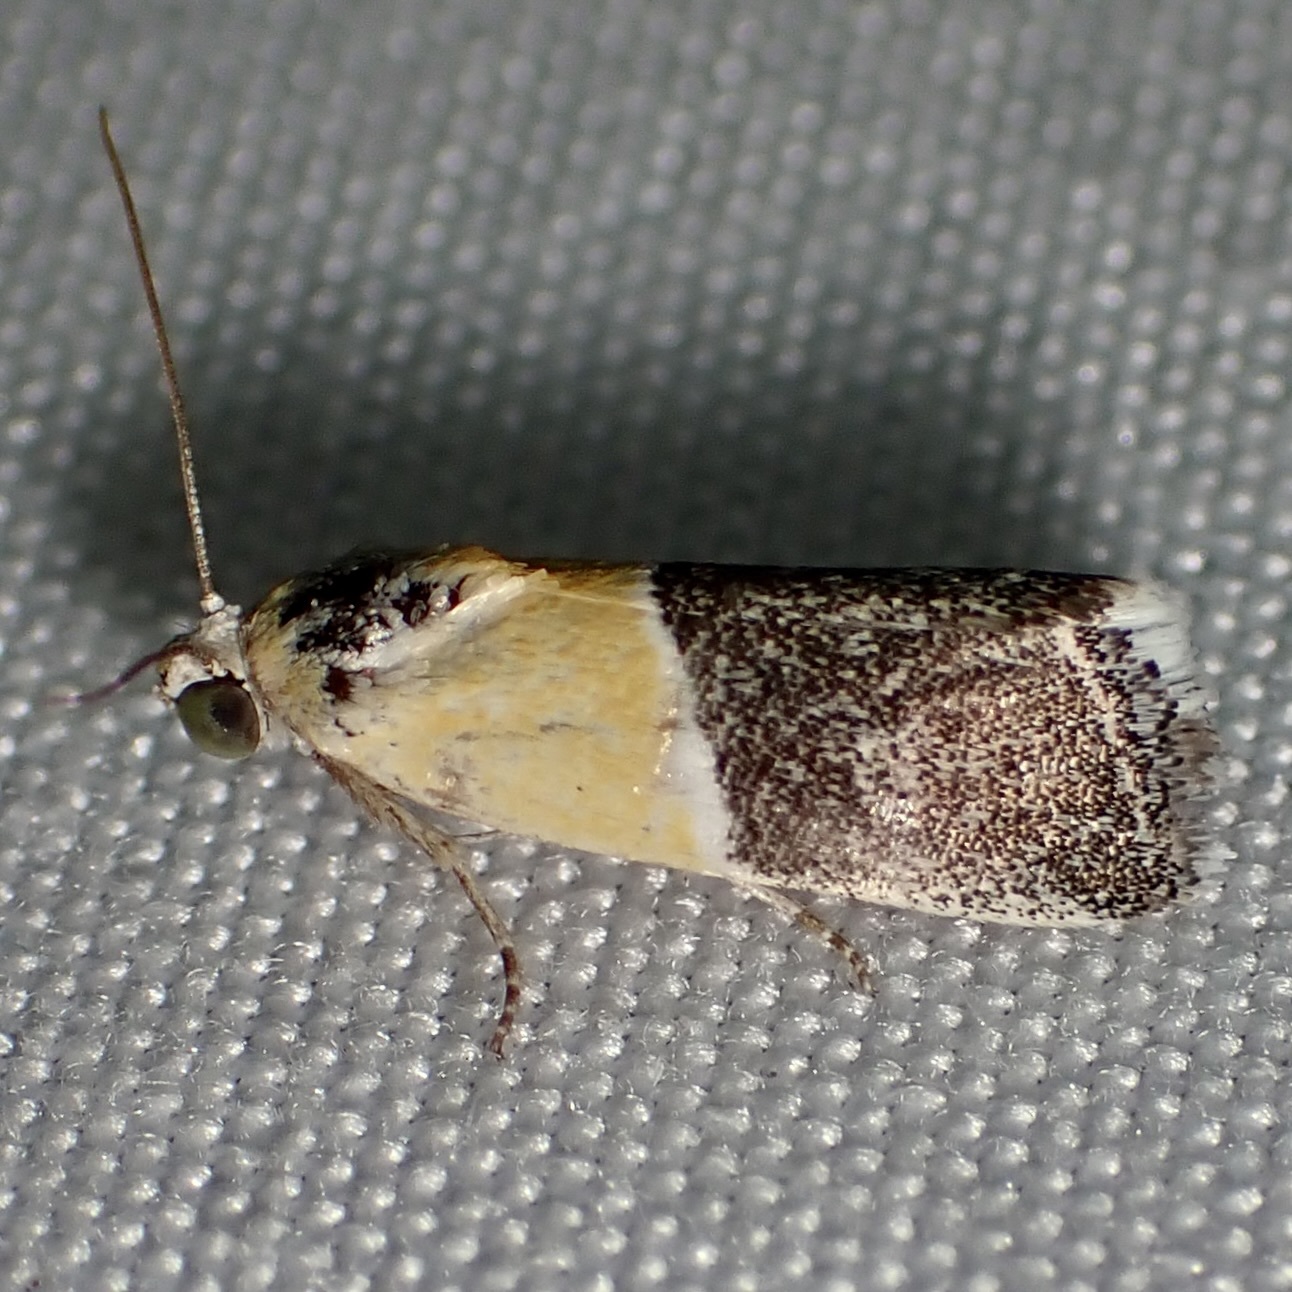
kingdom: Animalia
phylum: Arthropoda
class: Insecta
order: Lepidoptera
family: Noctuidae
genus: Acontia
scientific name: Acontia clausula
